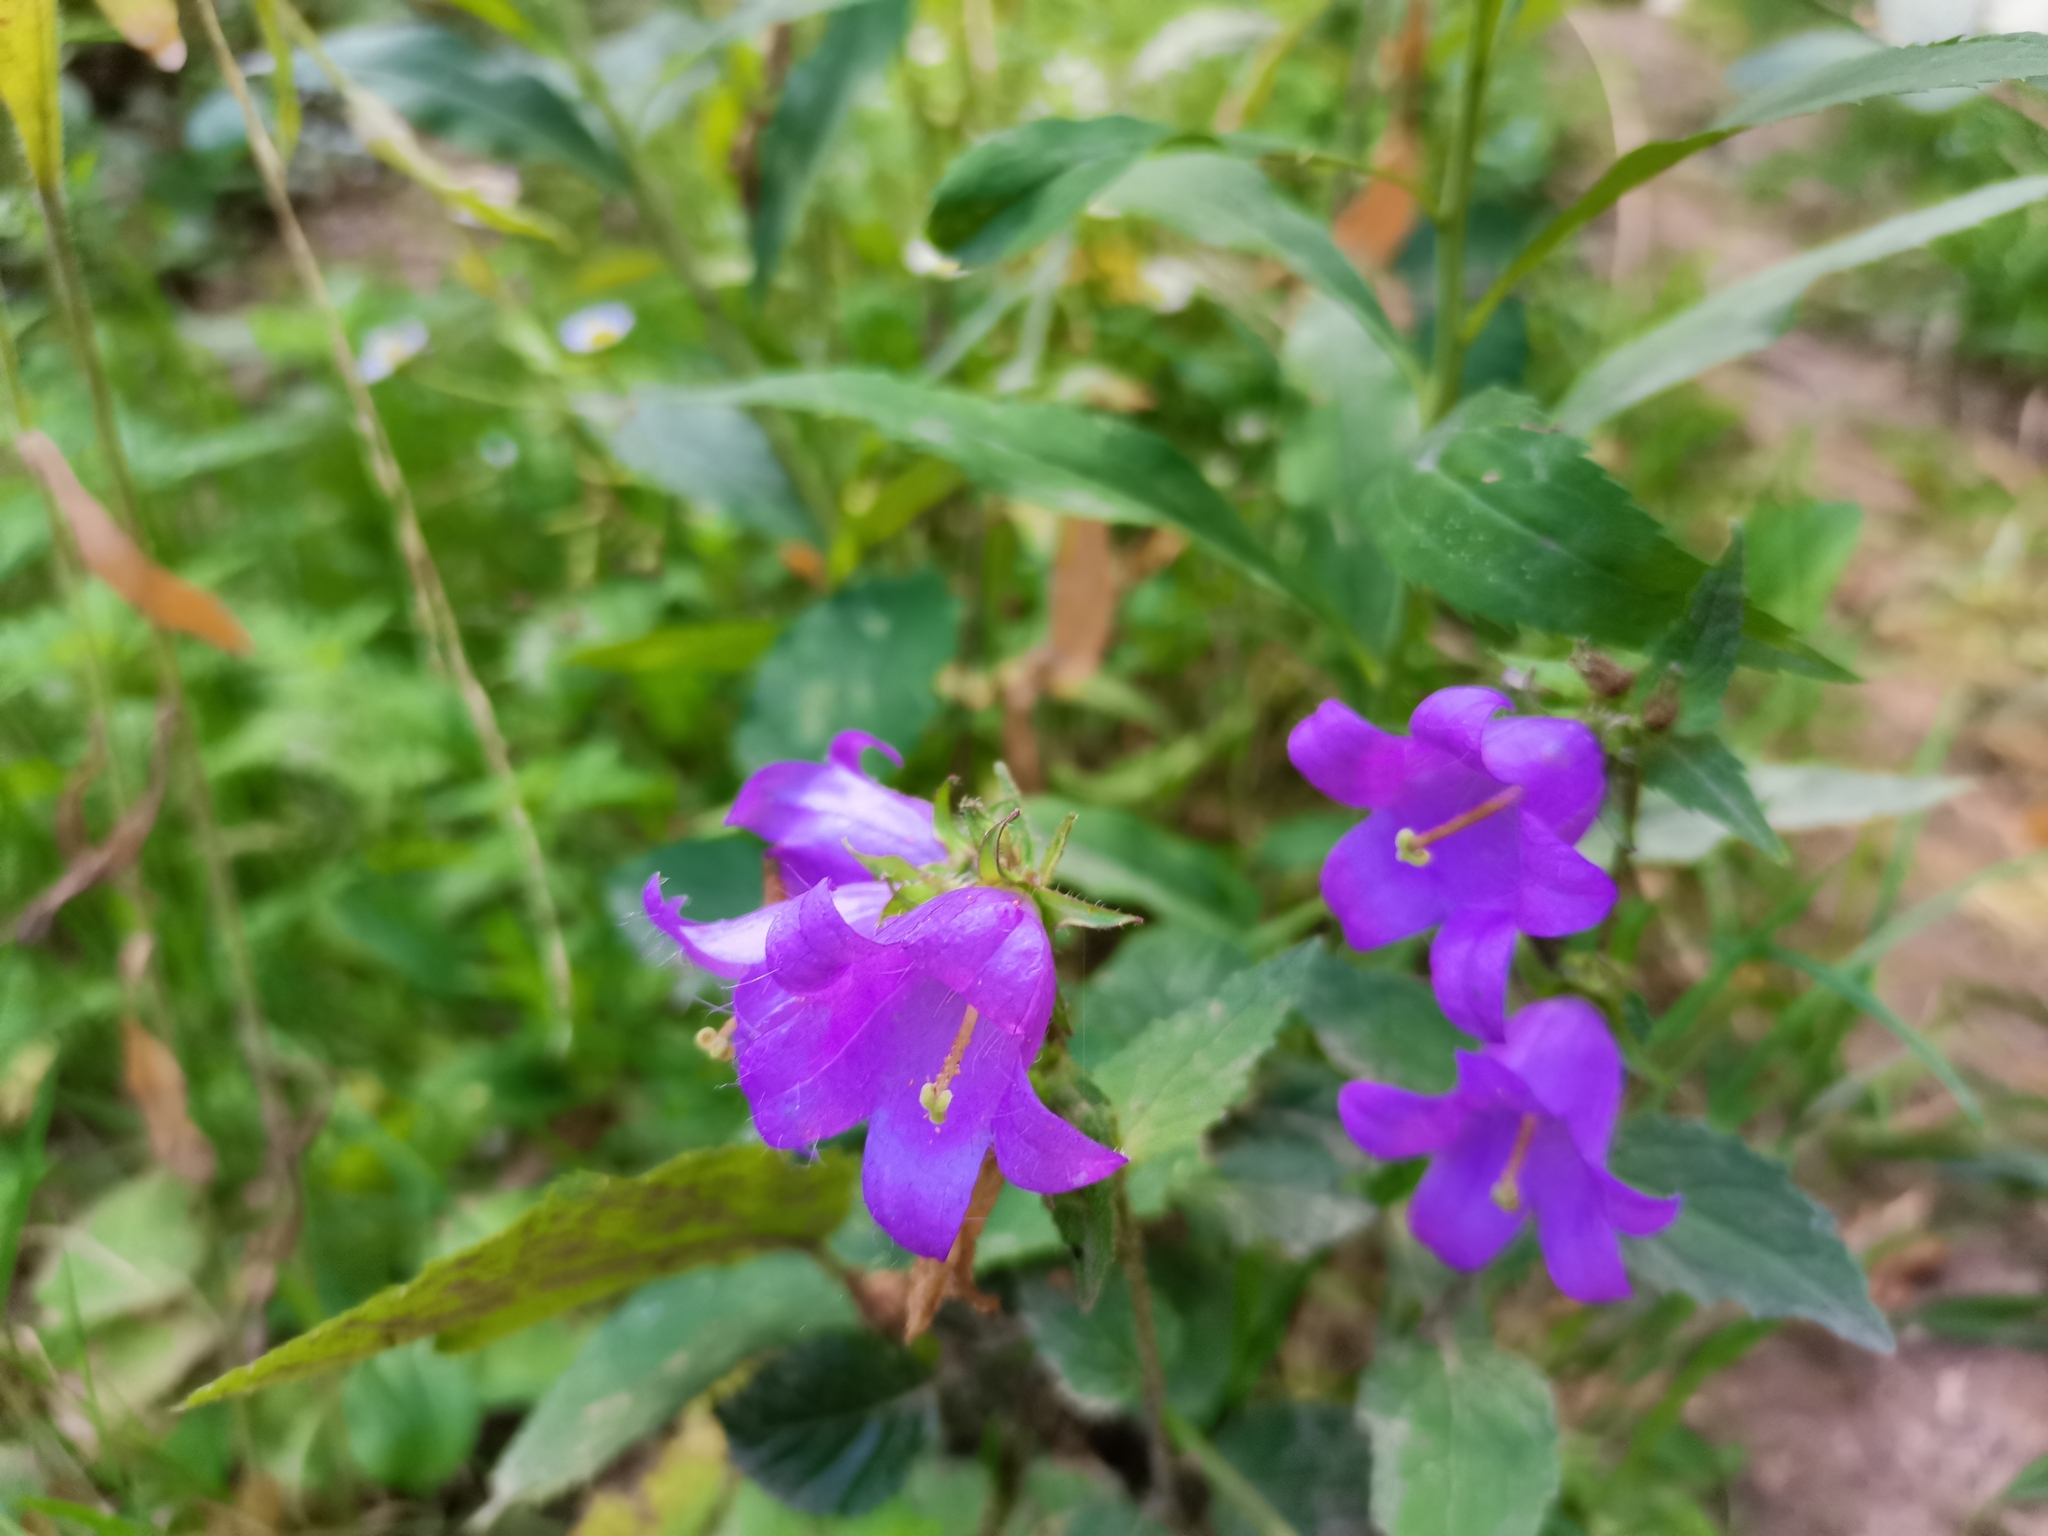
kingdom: Plantae
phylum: Tracheophyta
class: Magnoliopsida
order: Asterales
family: Campanulaceae
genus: Campanula
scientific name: Campanula trachelium
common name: Nettle-leaved bellflower
